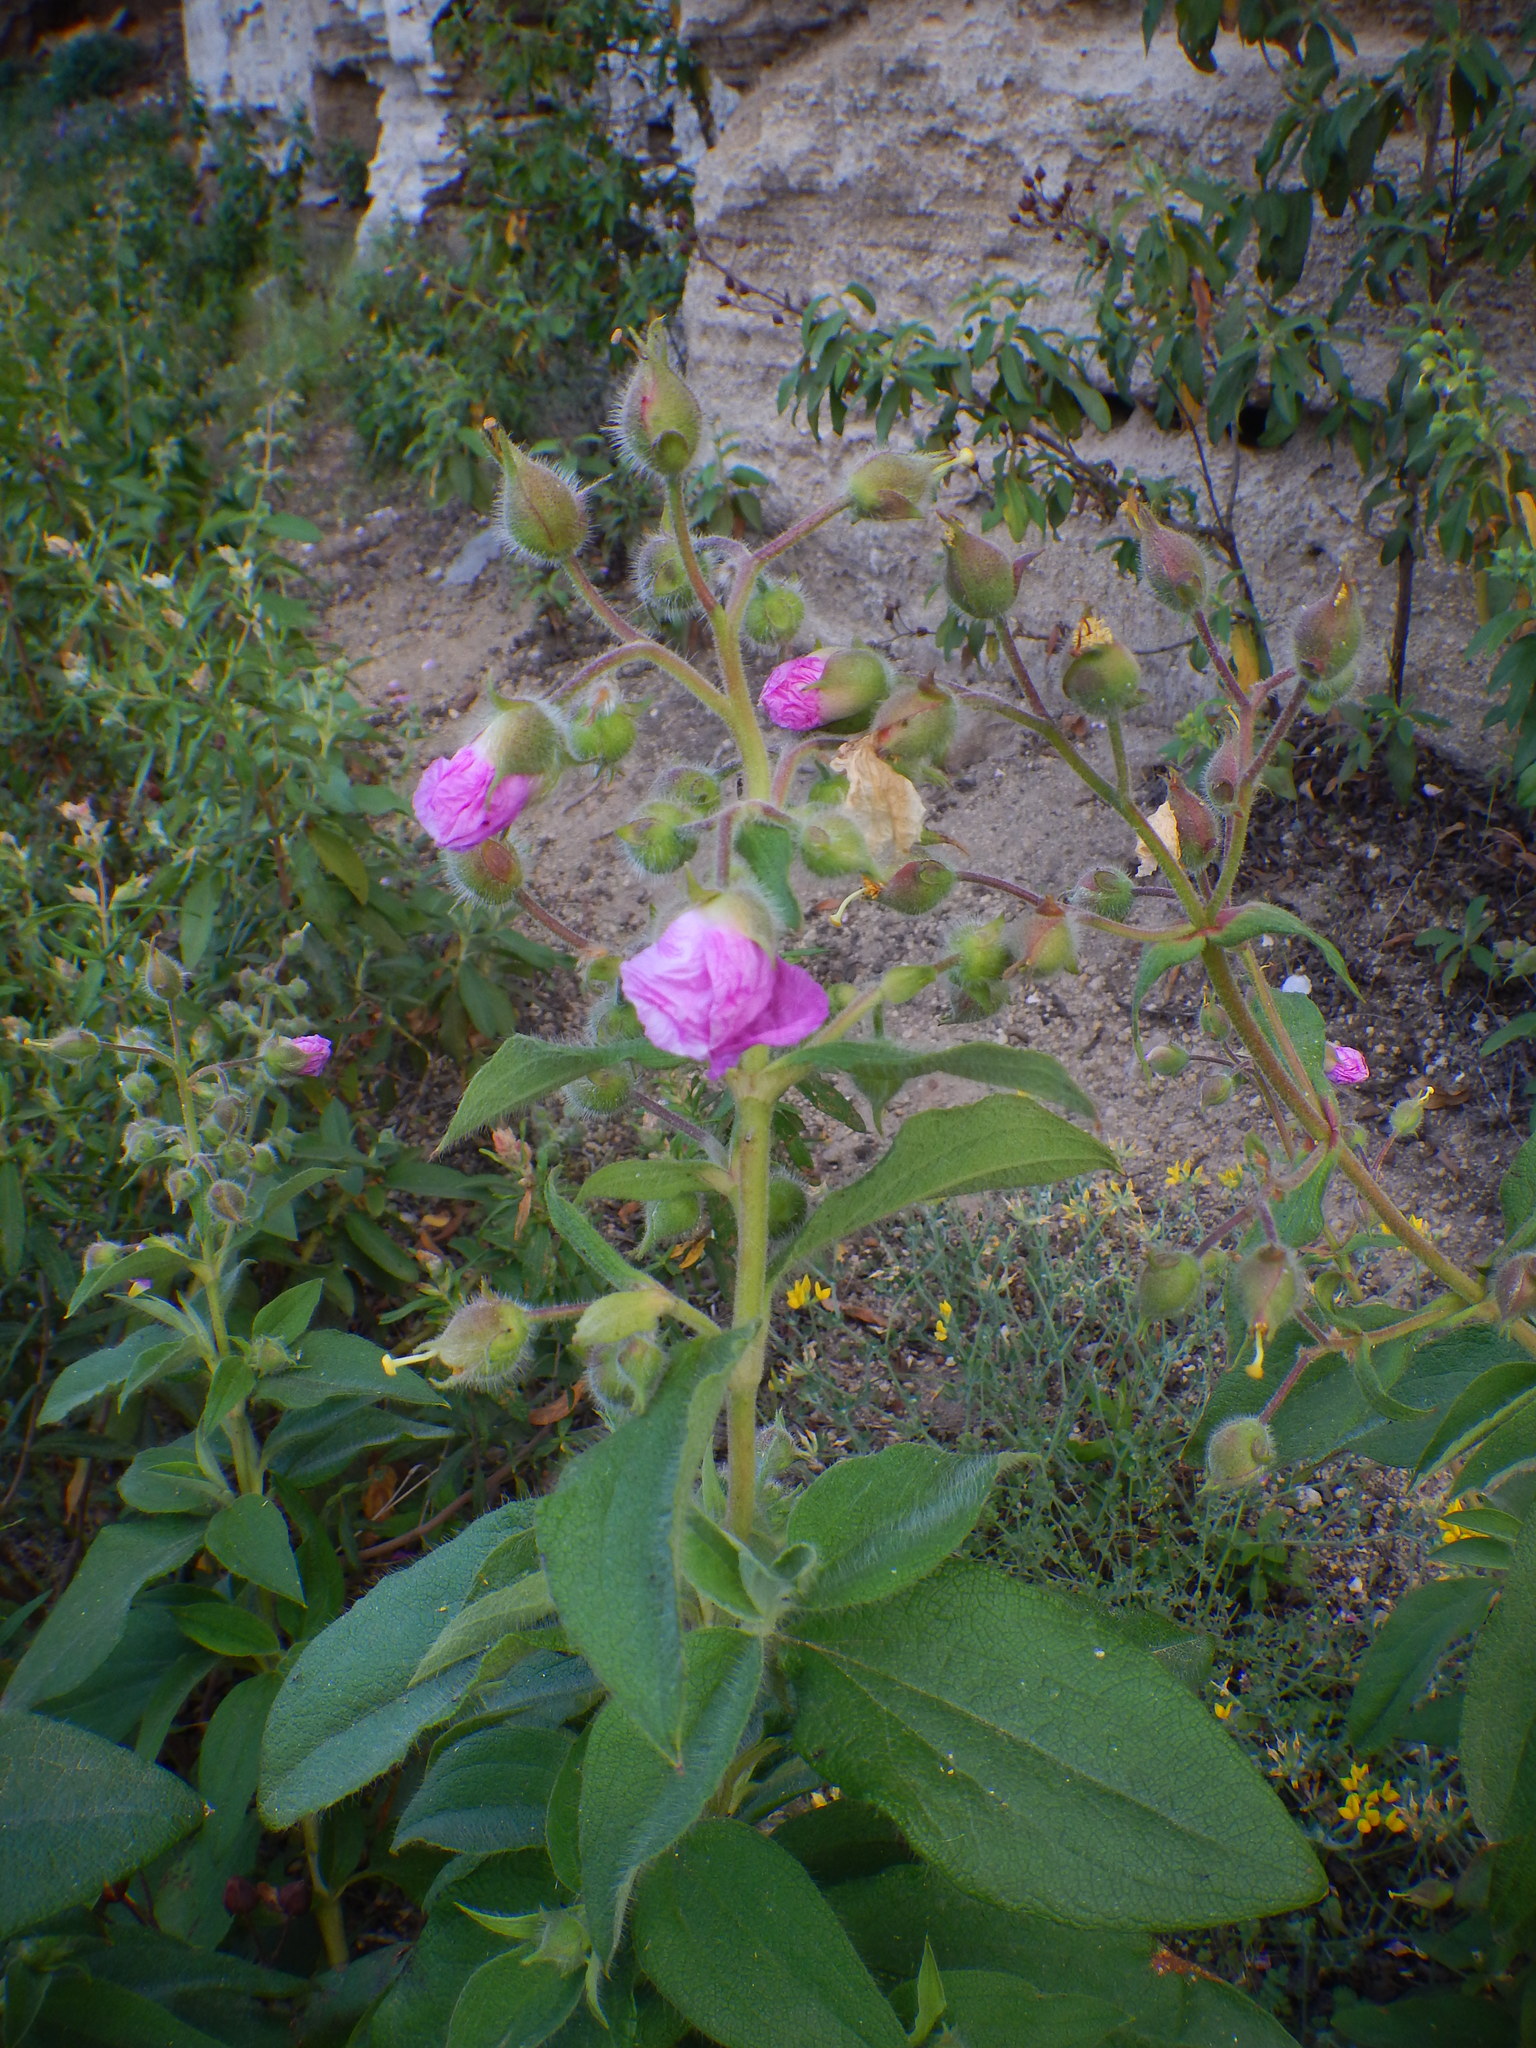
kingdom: Plantae
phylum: Tracheophyta
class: Magnoliopsida
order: Malvales
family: Cistaceae
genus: Cistus
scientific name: Cistus symphytifolius
